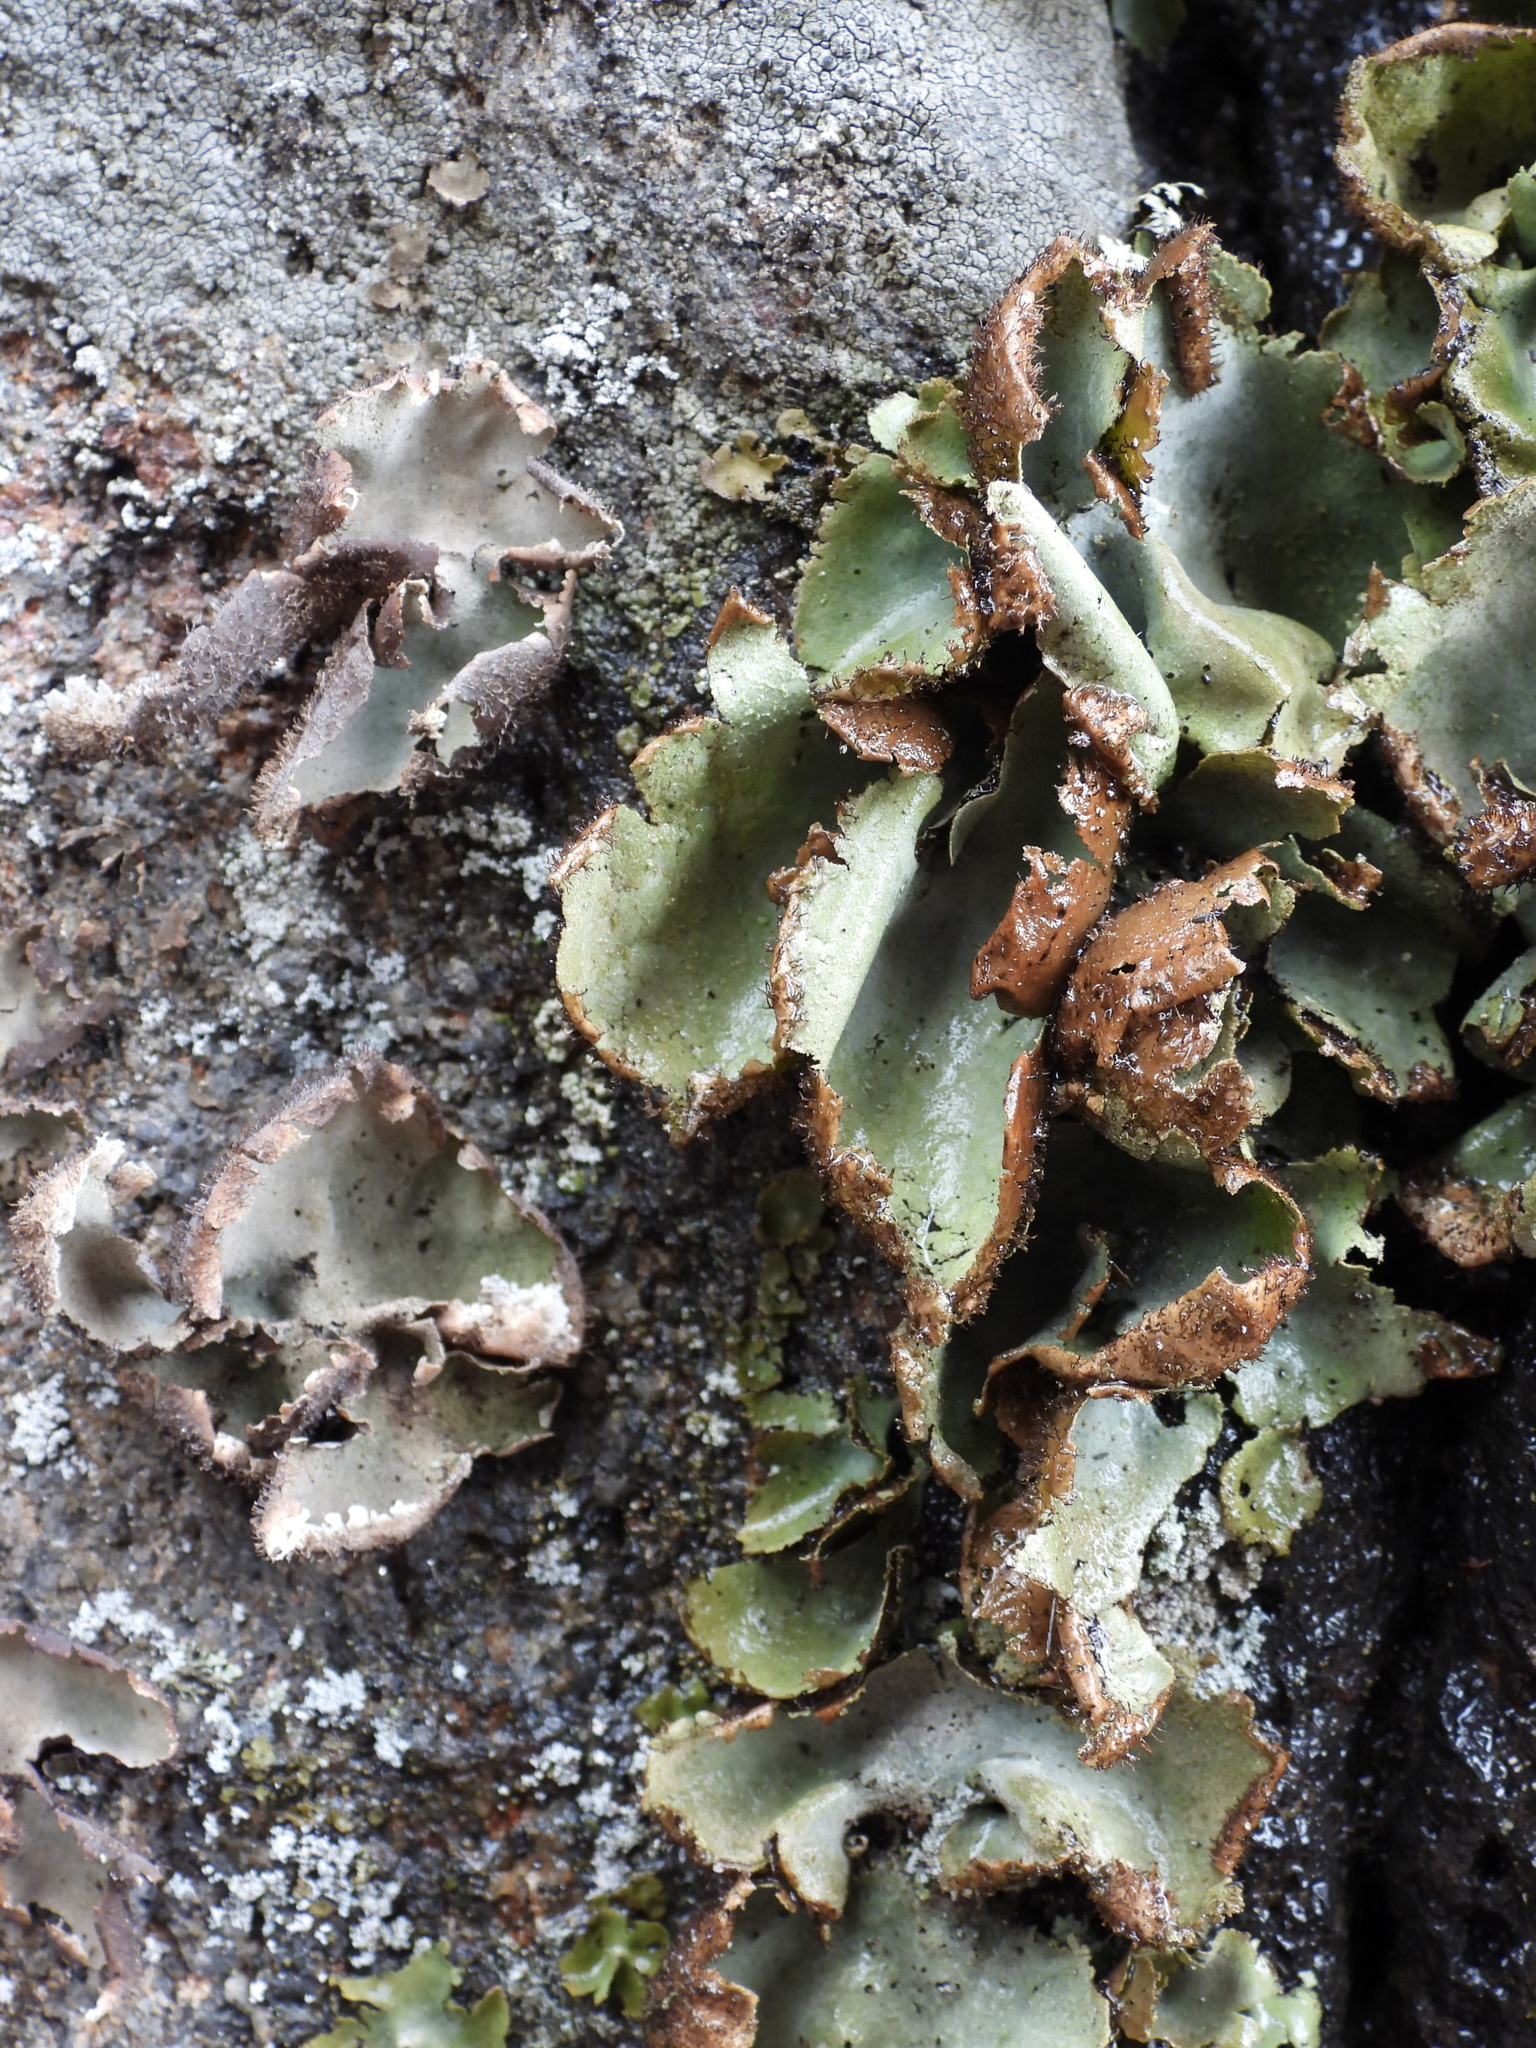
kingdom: Fungi
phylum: Ascomycota
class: Lecanoromycetes
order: Umbilicariales
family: Umbilicariaceae
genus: Umbilicaria
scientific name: Umbilicaria hirsuta
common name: Granulating rocktripe lichen
